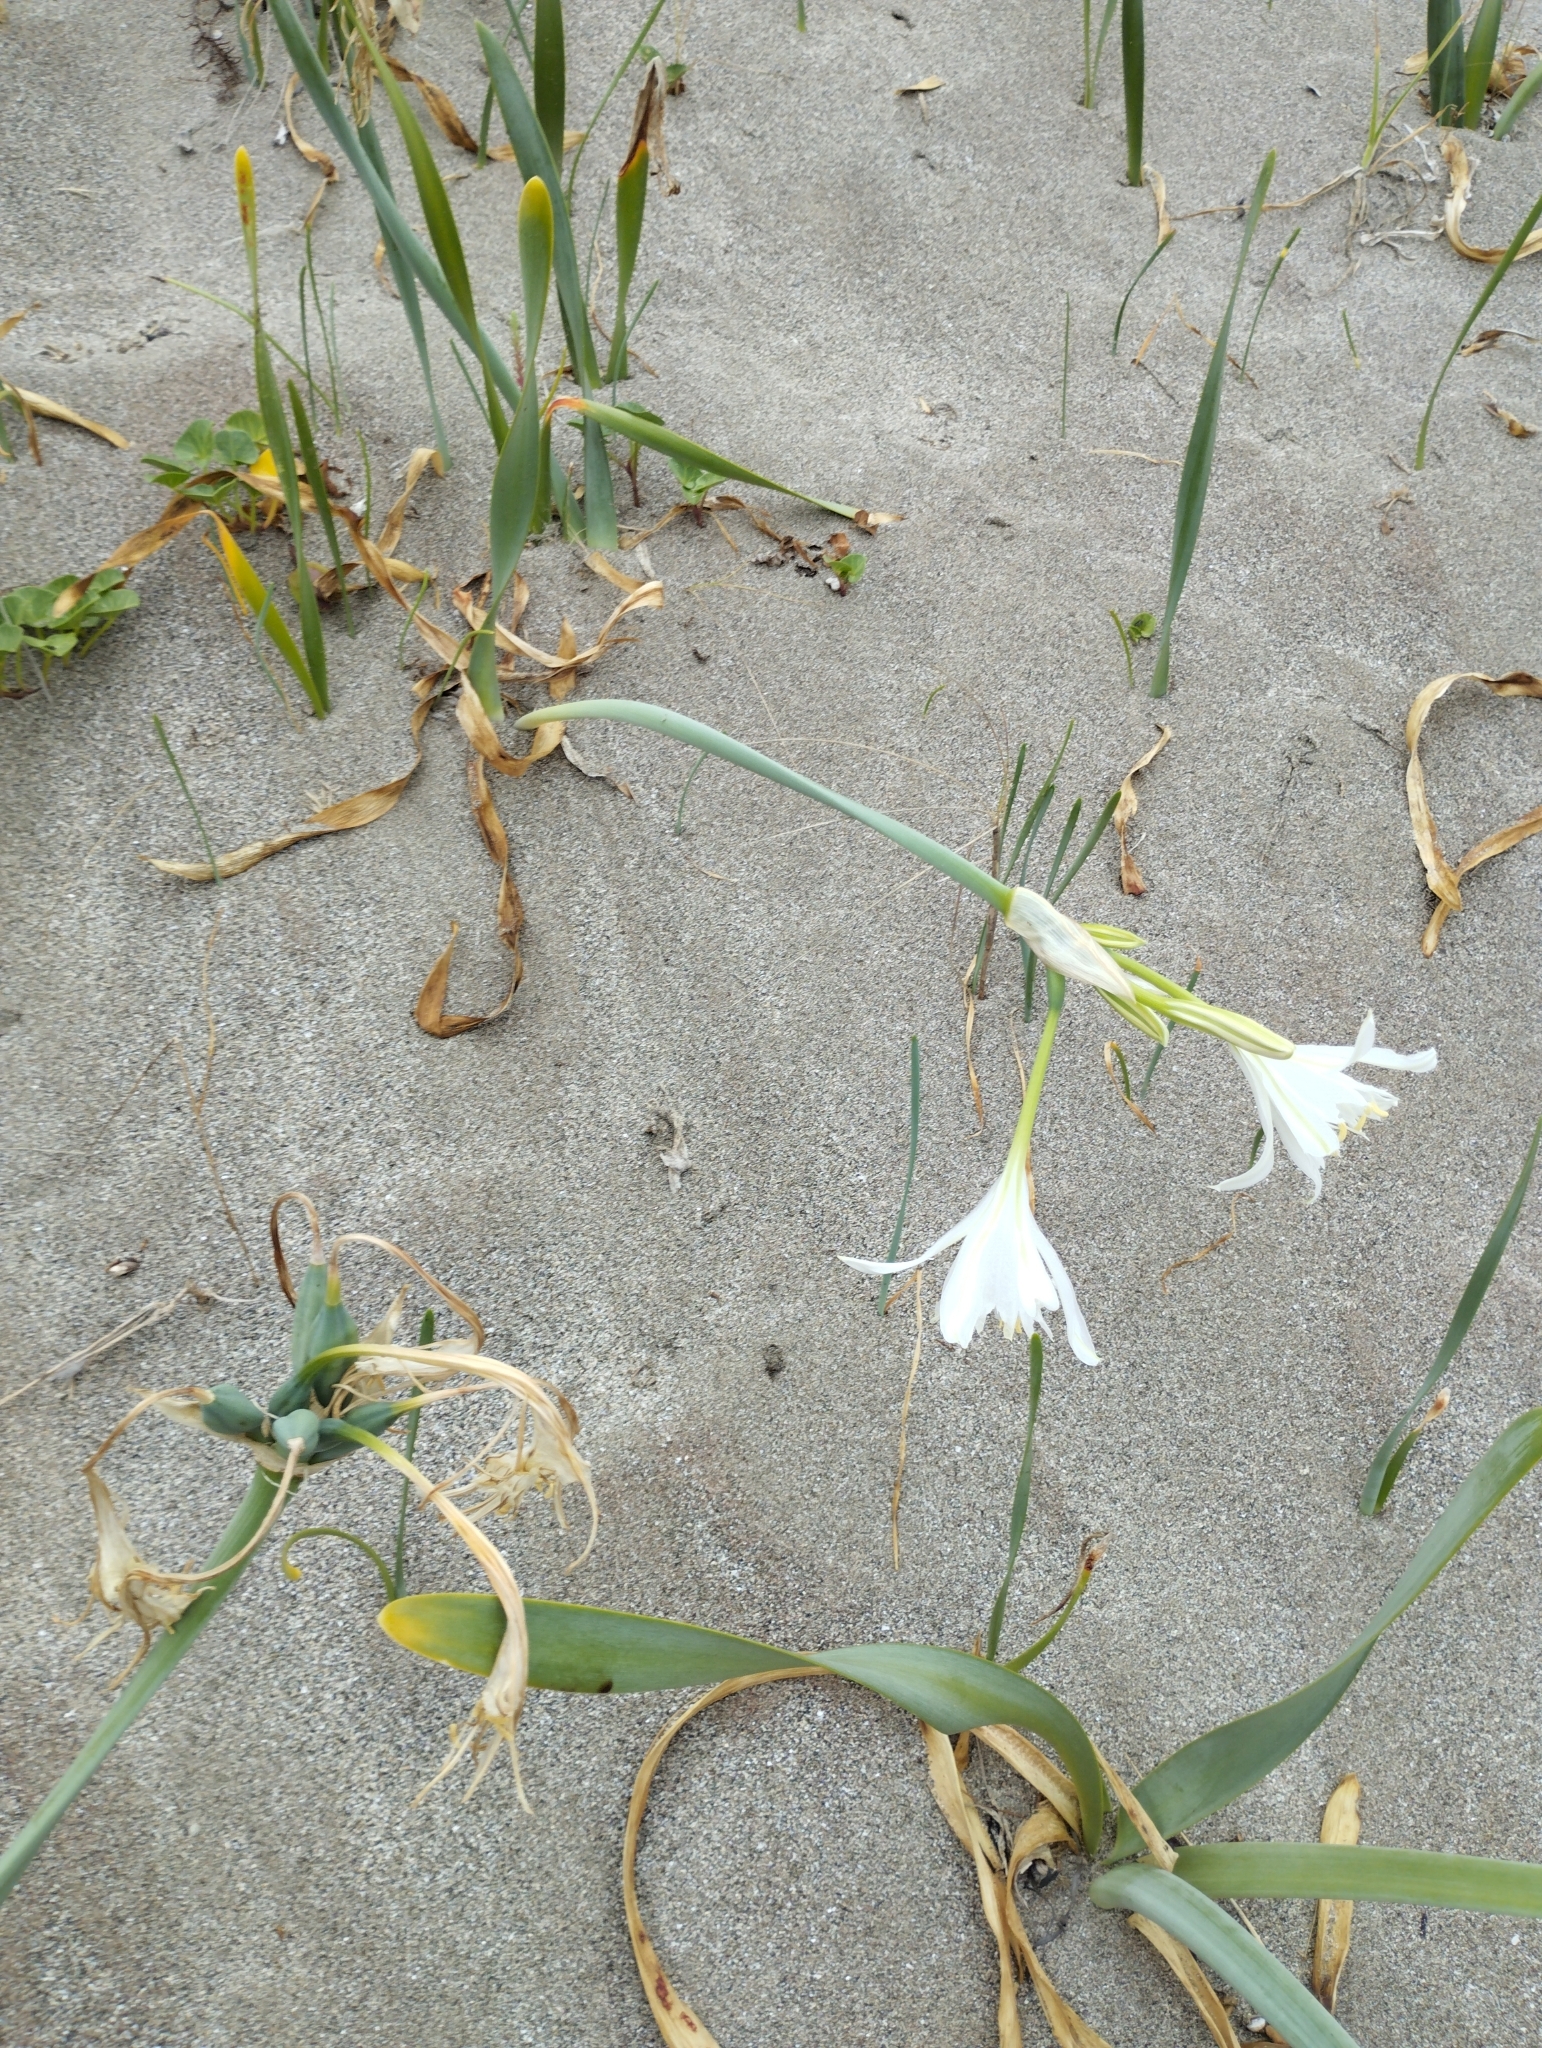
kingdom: Plantae
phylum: Tracheophyta
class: Liliopsida
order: Asparagales
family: Amaryllidaceae
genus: Pancratium
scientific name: Pancratium maritimum
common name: Sea-daffodil
